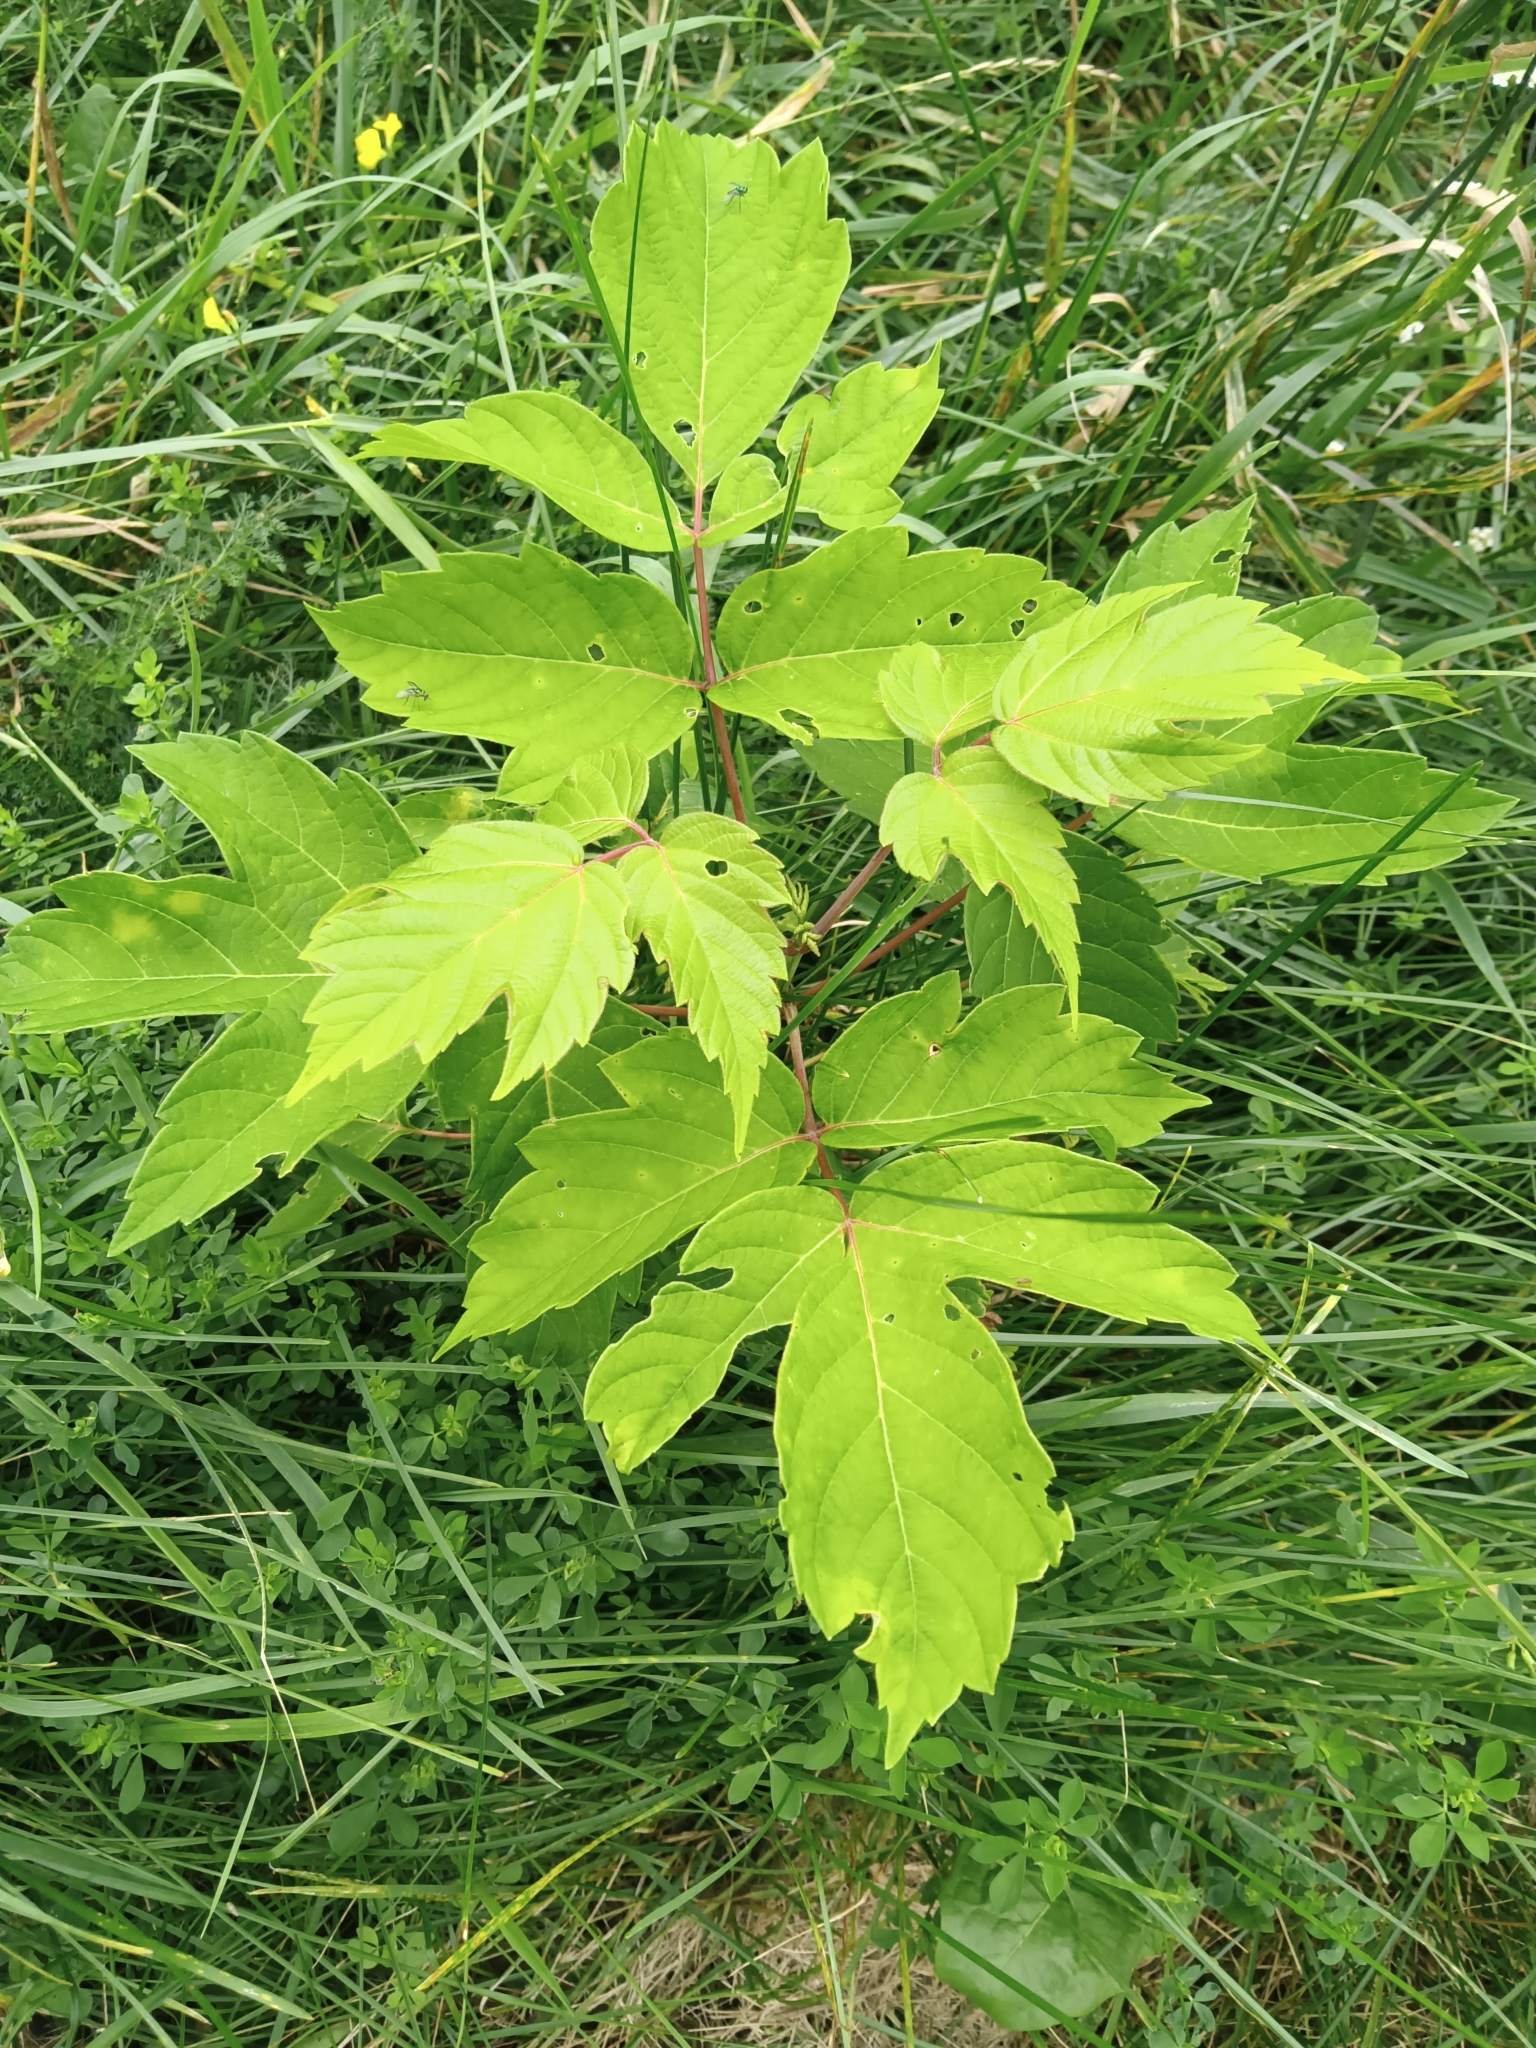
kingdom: Plantae
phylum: Tracheophyta
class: Magnoliopsida
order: Sapindales
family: Sapindaceae
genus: Acer
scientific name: Acer negundo
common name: Ashleaf maple
